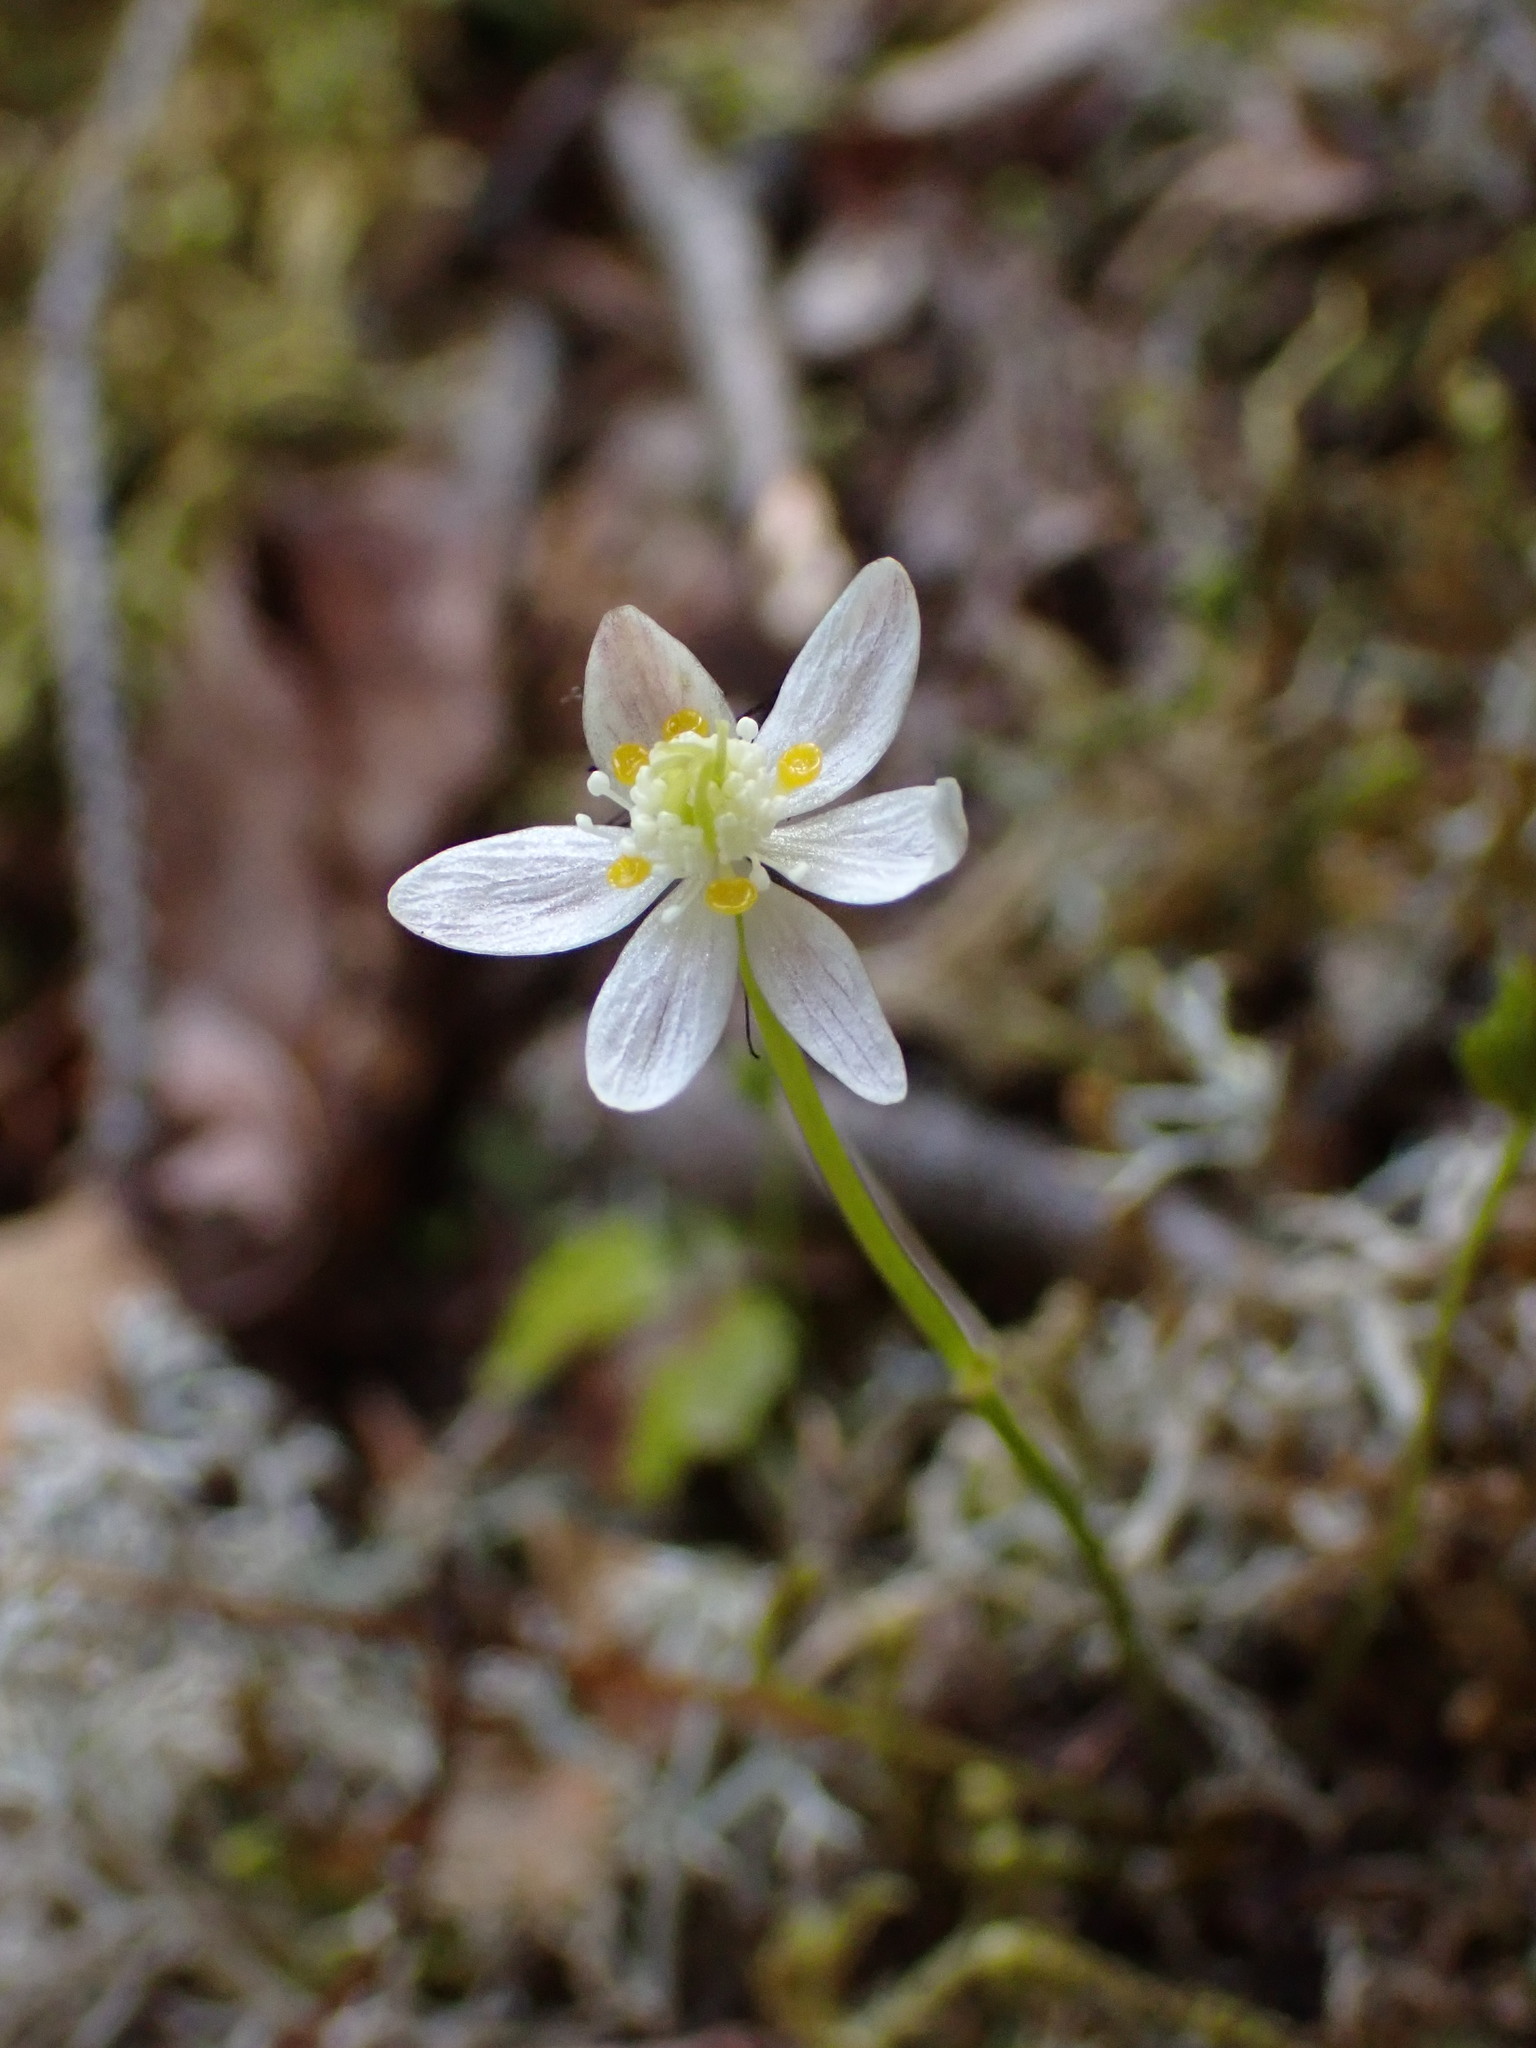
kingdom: Plantae
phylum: Tracheophyta
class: Magnoliopsida
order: Ranunculales
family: Ranunculaceae
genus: Coptis
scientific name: Coptis trifolia
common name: Canker-root
